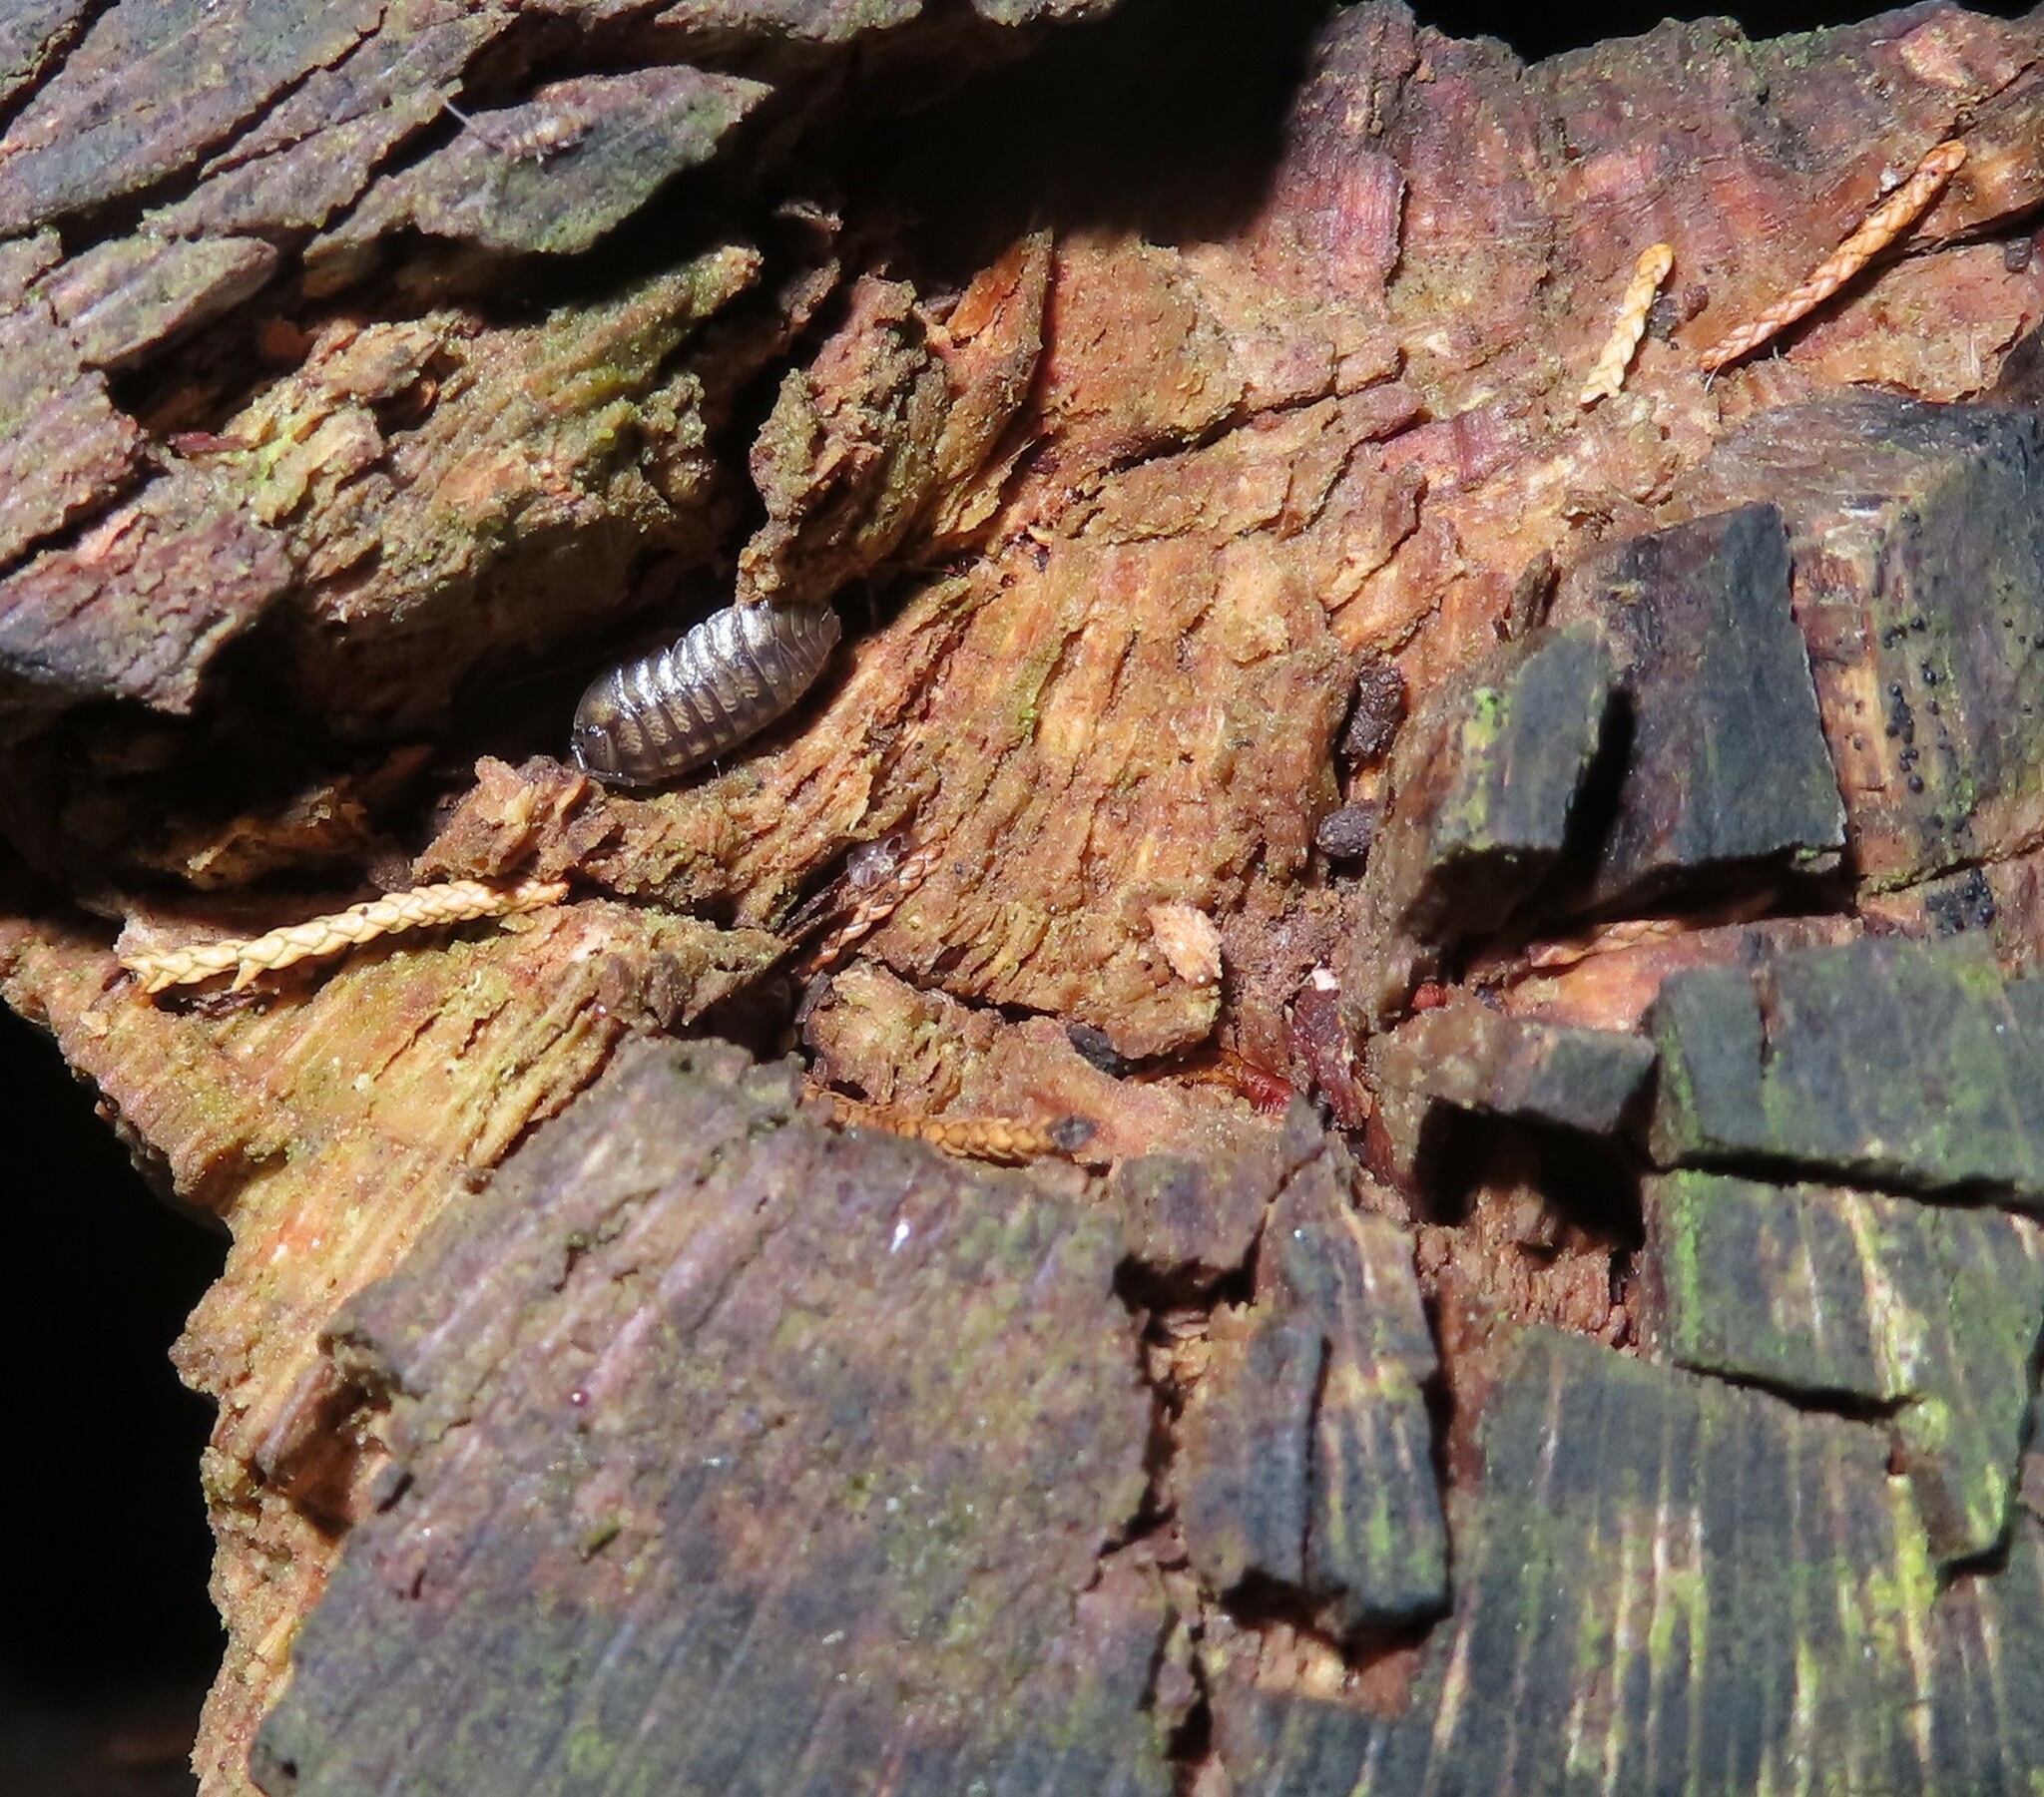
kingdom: Animalia
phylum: Arthropoda
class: Malacostraca
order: Isopoda
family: Armadillidiidae
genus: Armadillidium
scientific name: Armadillidium nasatum
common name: Isopod
